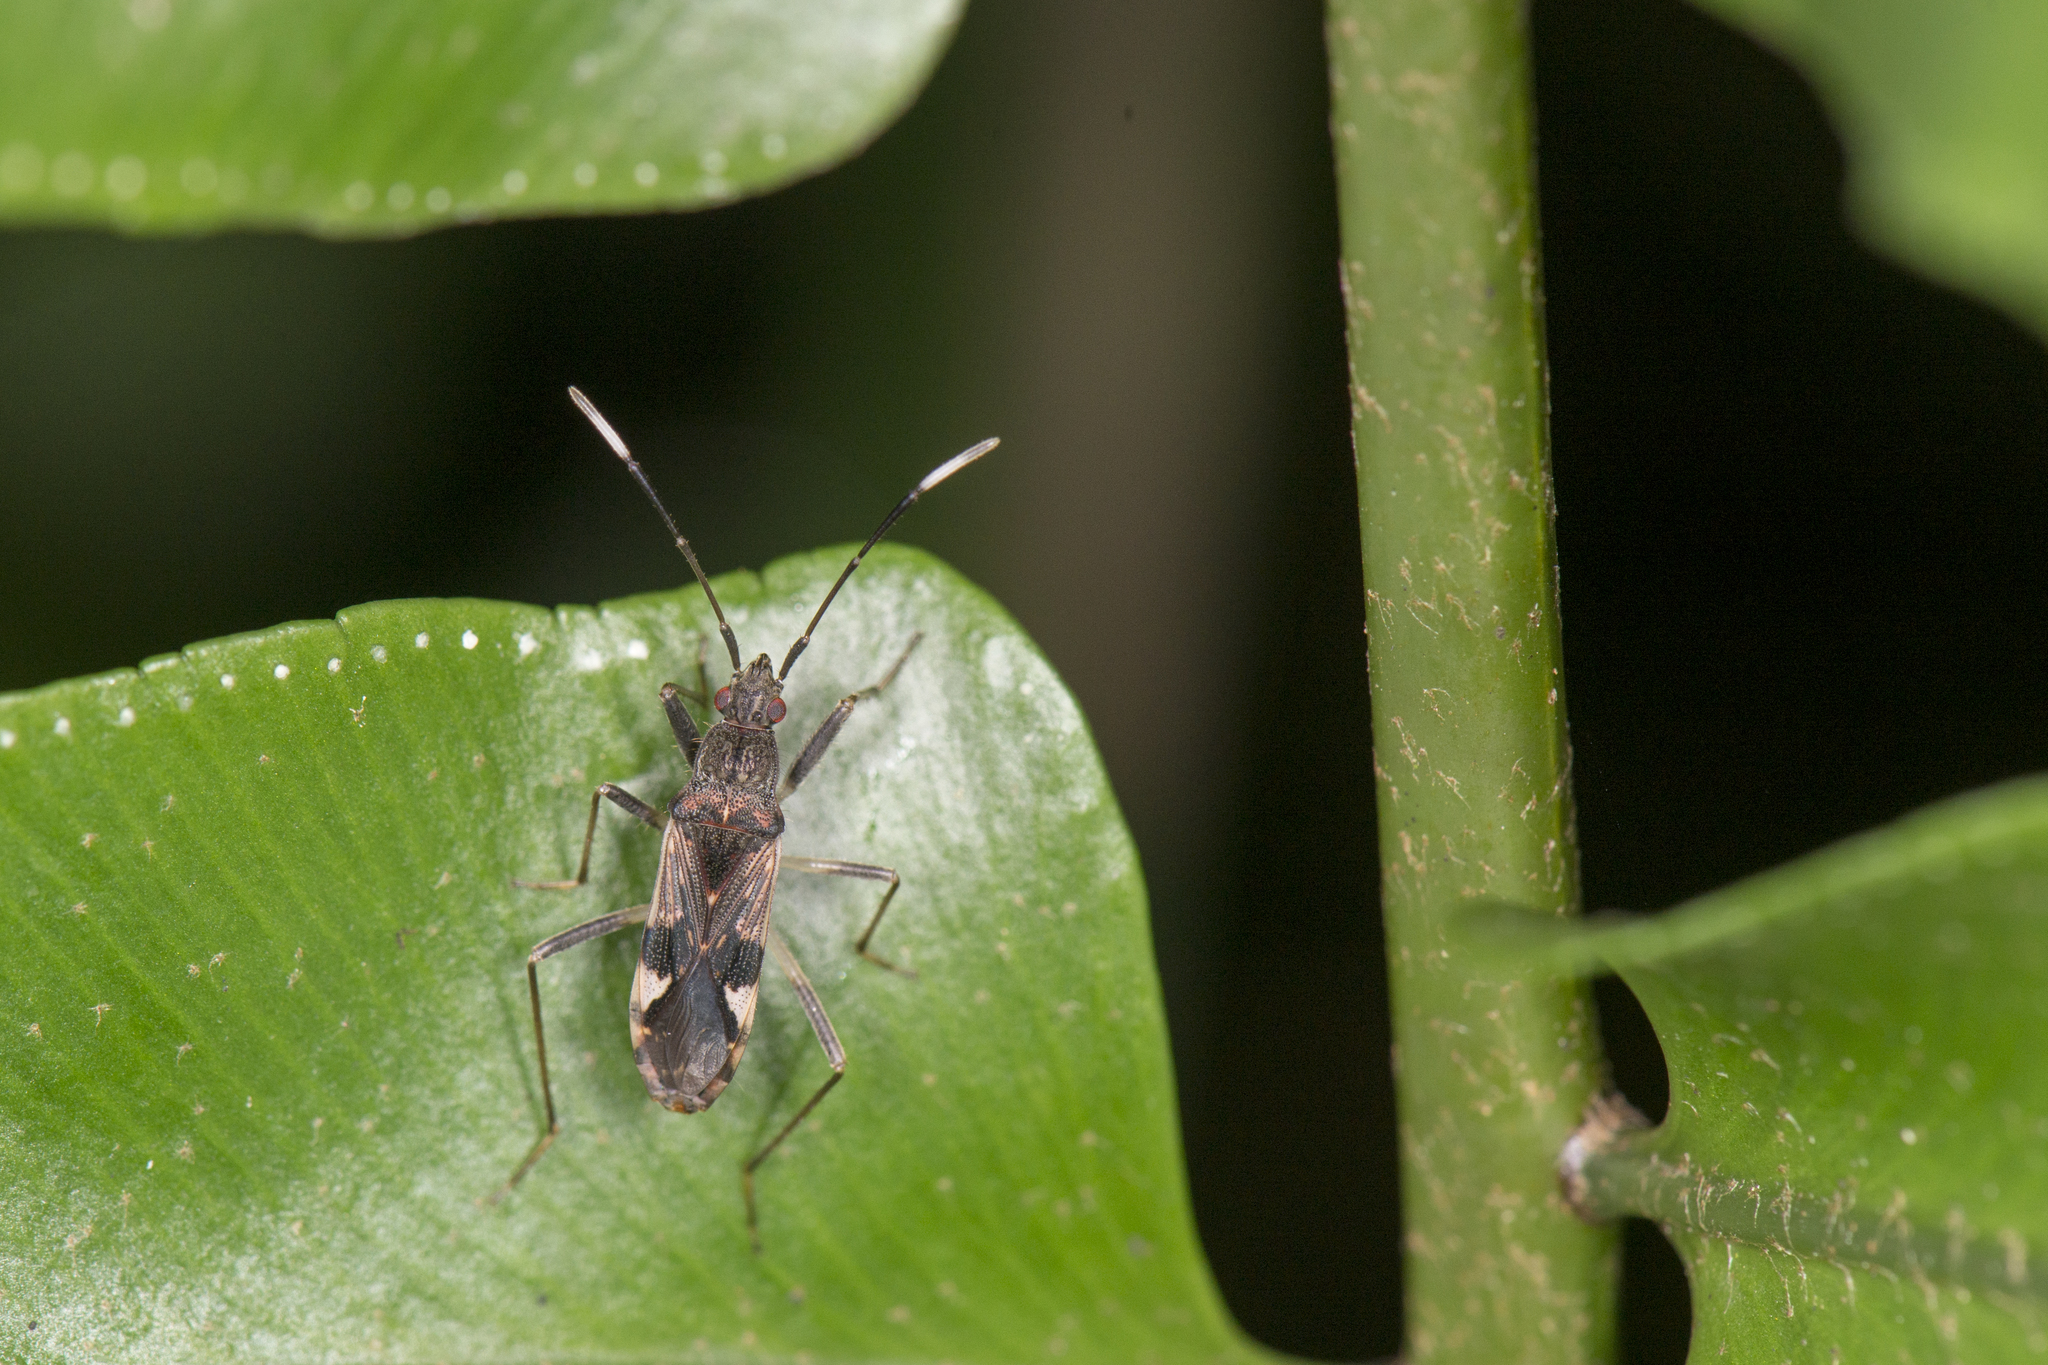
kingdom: Animalia
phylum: Arthropoda
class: Insecta
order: Hemiptera
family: Rhyparochromidae
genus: Metochus
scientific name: Metochus abbreviatus
